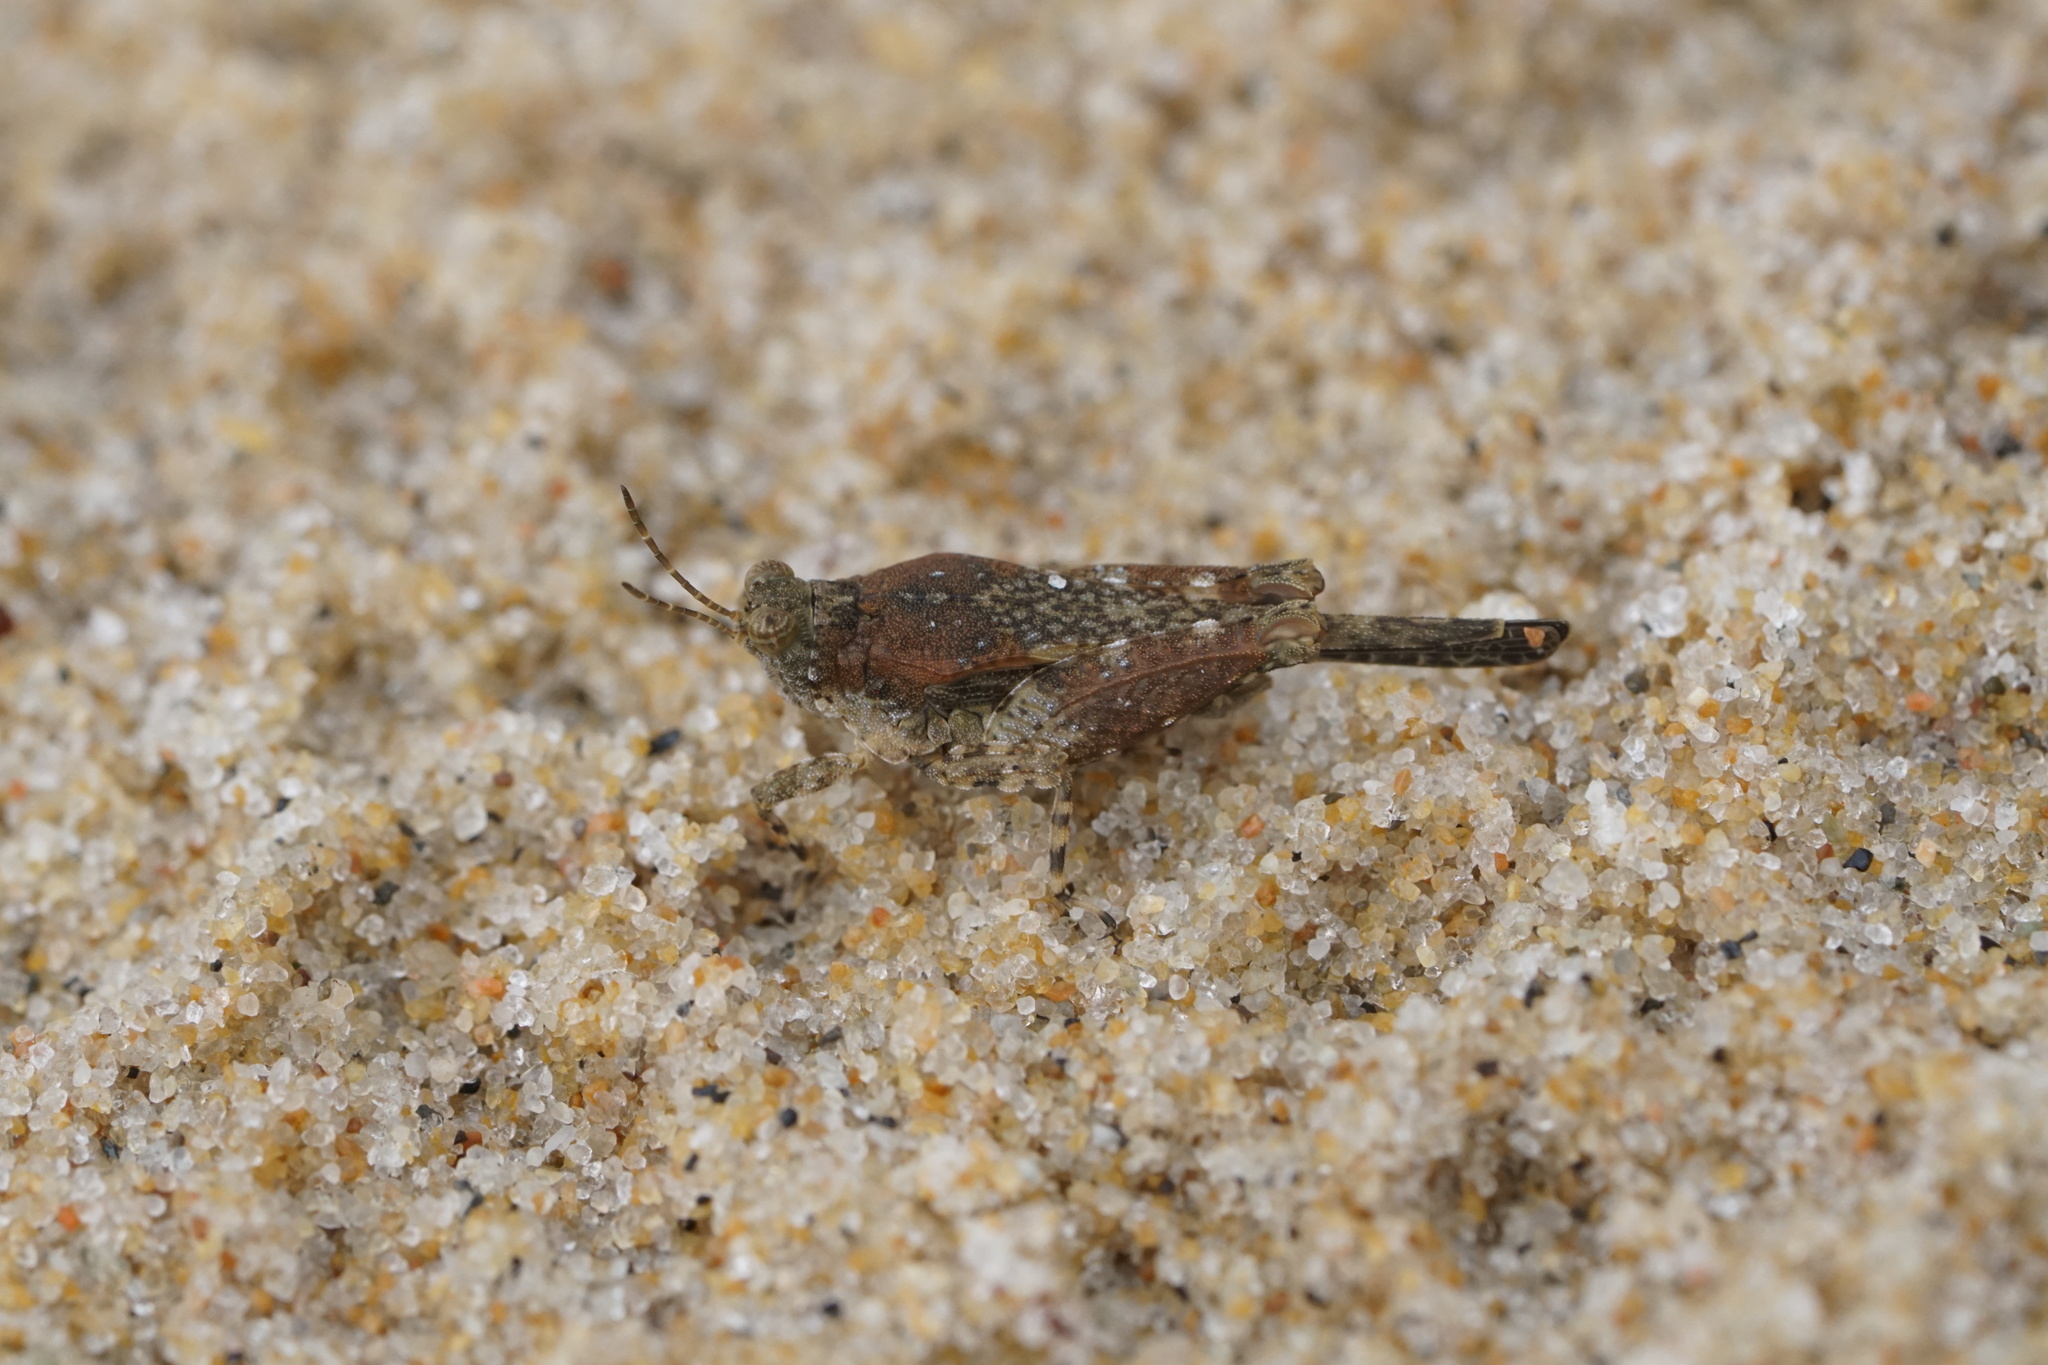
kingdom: Animalia
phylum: Arthropoda
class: Insecta
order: Orthoptera
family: Tetrigidae
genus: Paratettix
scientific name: Paratettix cucullatus
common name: Hooded grouse locust
